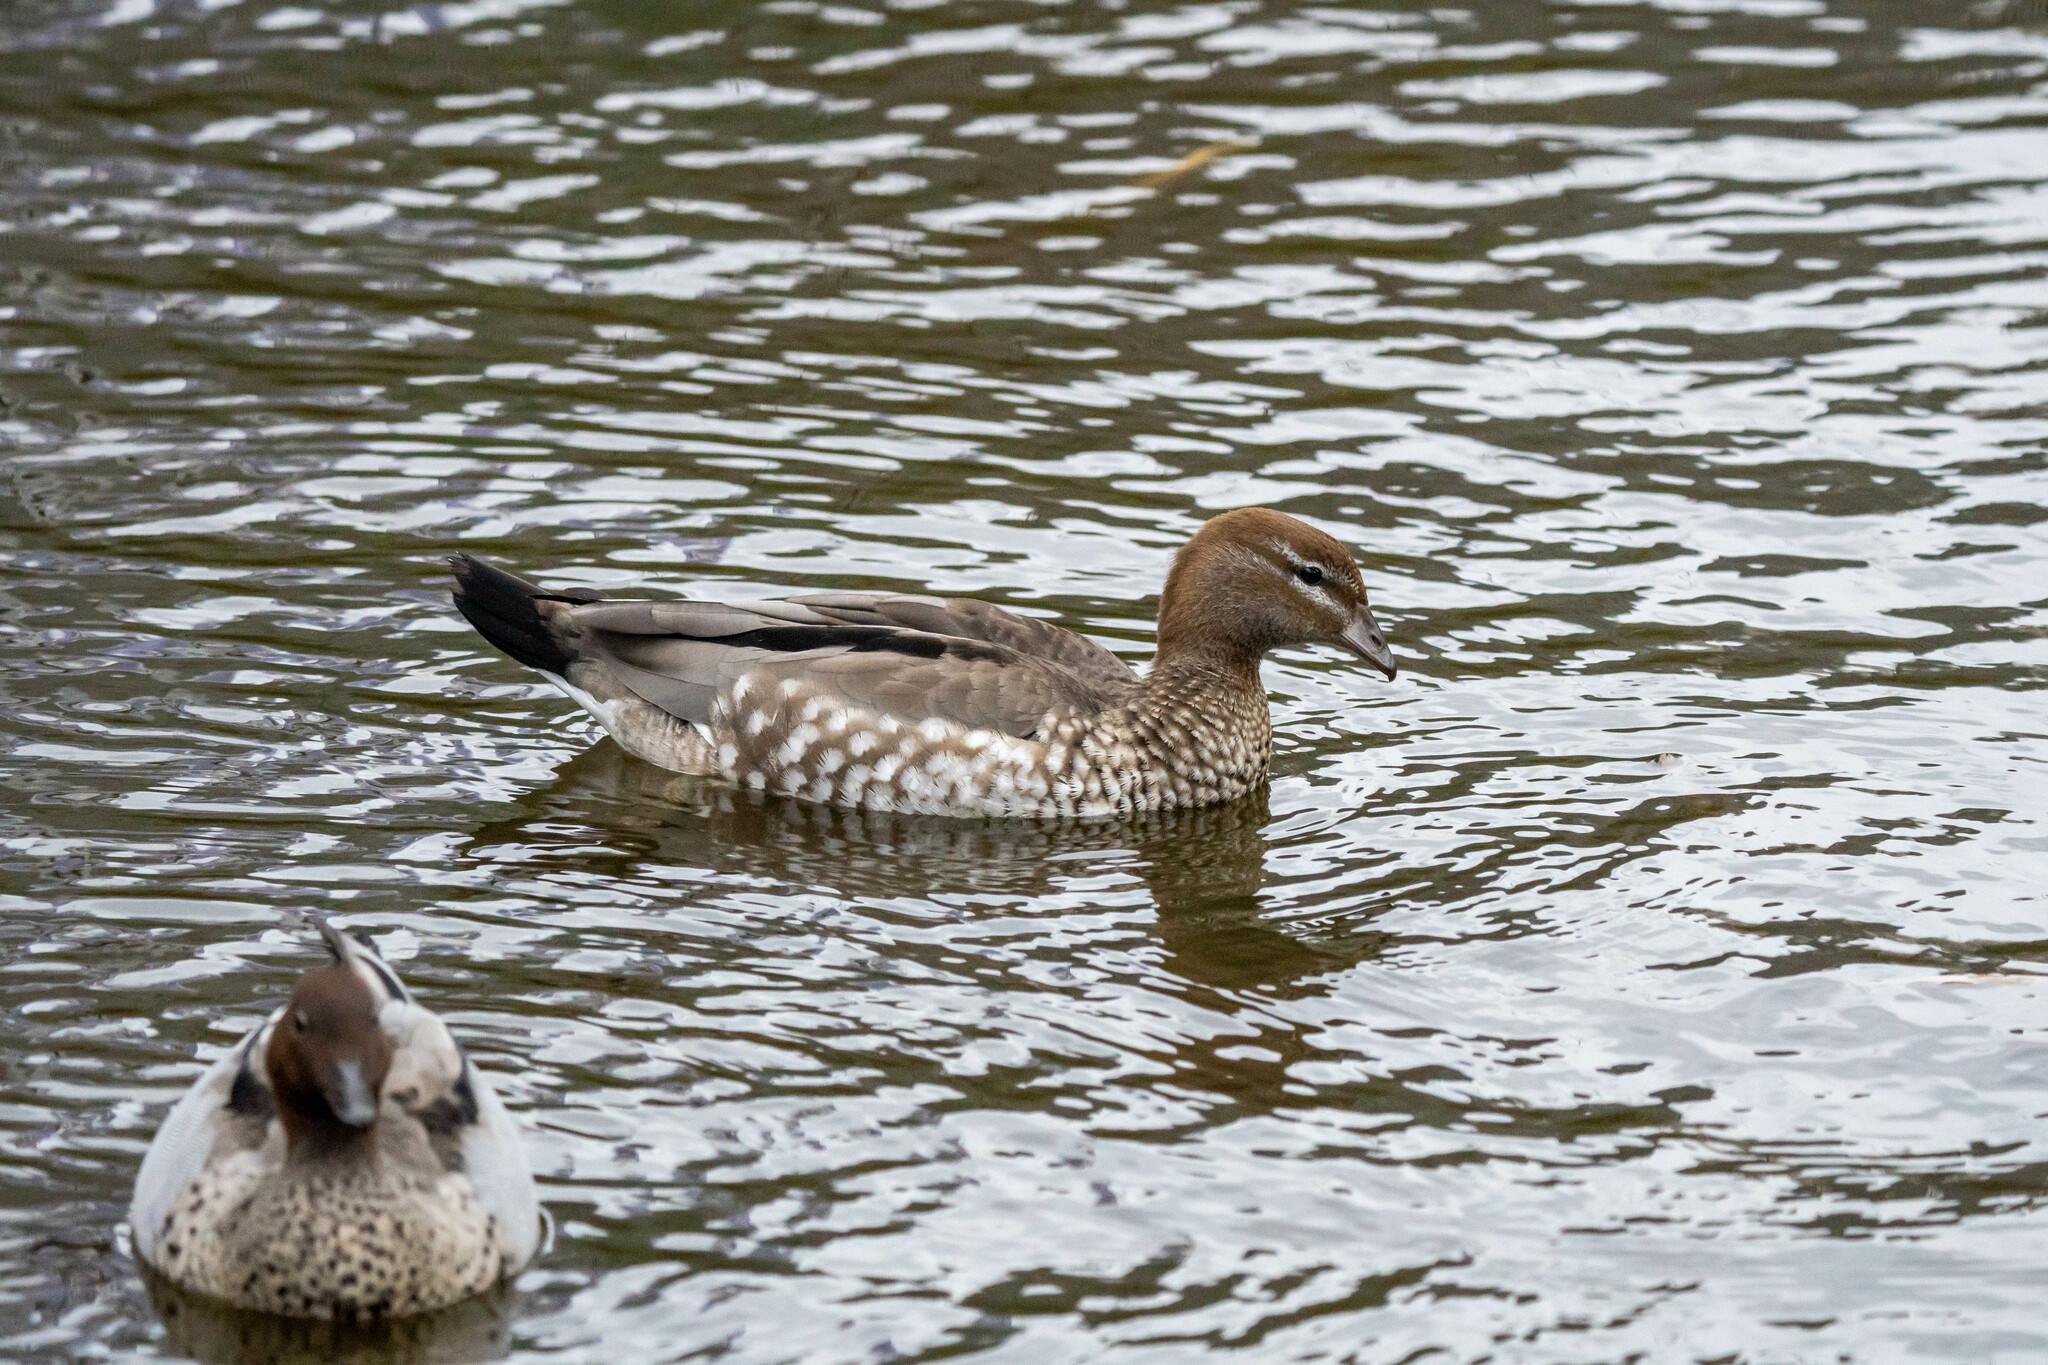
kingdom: Animalia
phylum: Chordata
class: Aves
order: Anseriformes
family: Anatidae
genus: Chenonetta
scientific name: Chenonetta jubata
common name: Maned duck
